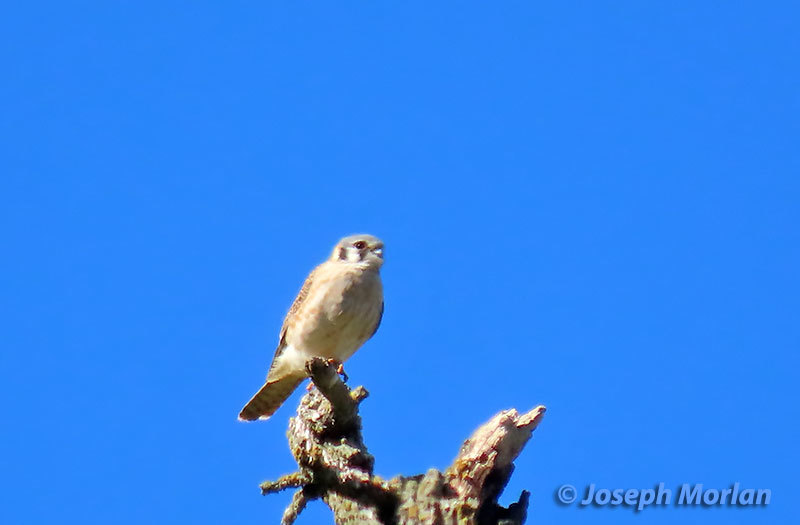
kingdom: Animalia
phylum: Chordata
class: Aves
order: Falconiformes
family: Falconidae
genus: Falco
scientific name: Falco sparverius
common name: American kestrel
